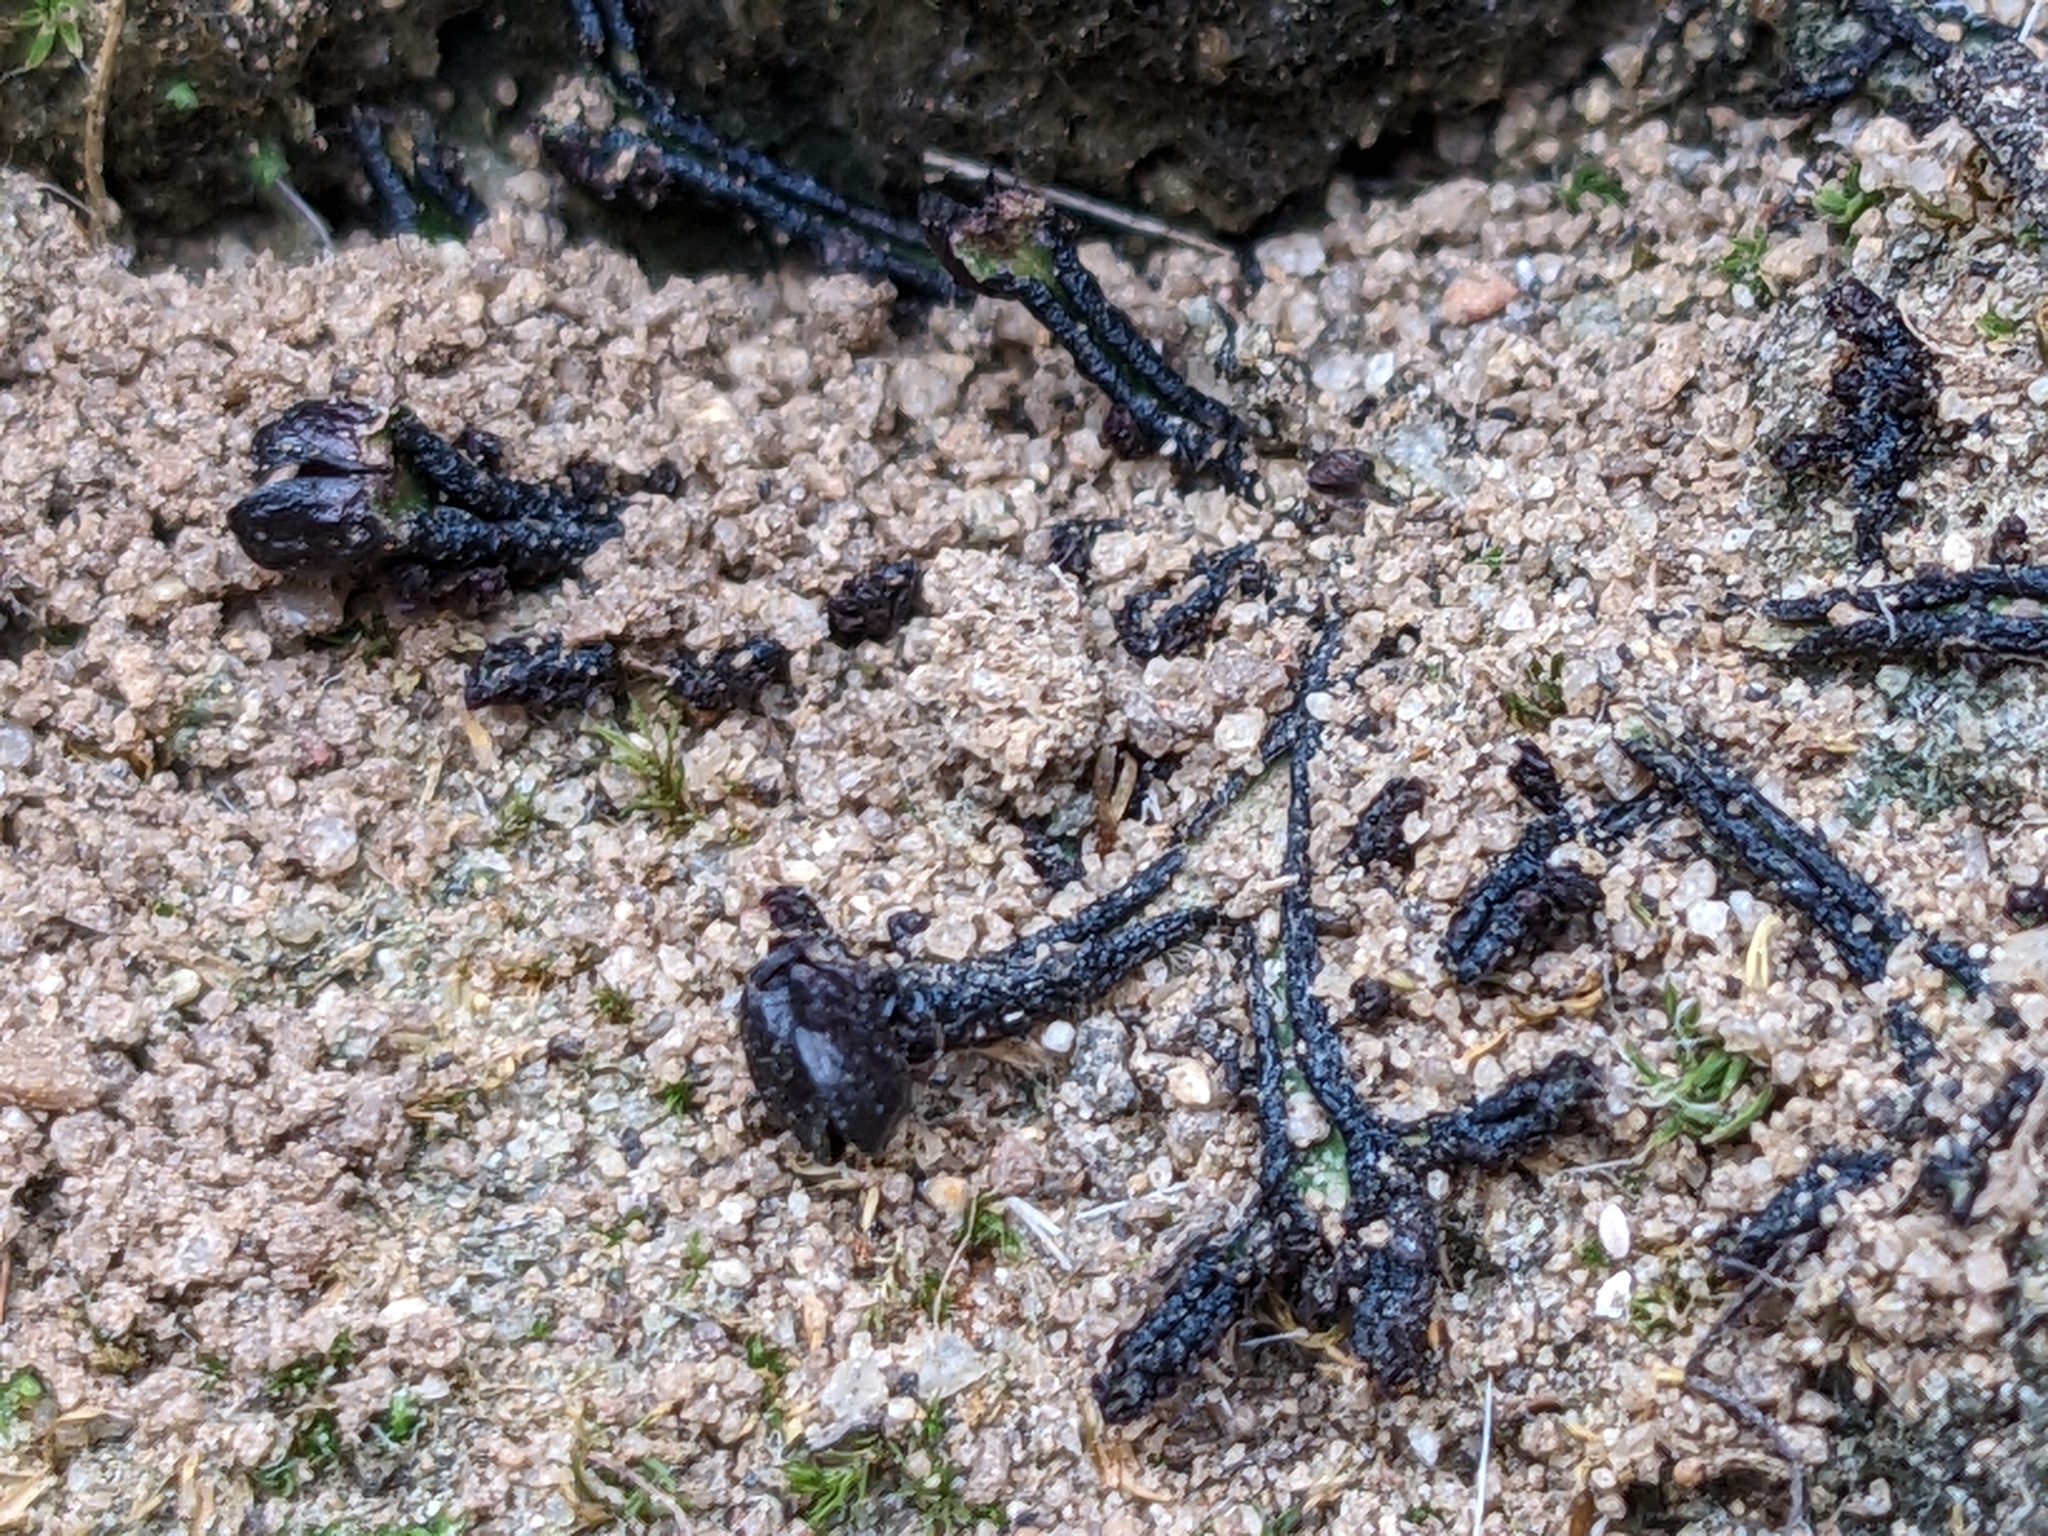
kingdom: Plantae
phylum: Marchantiophyta
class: Marchantiopsida
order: Marchantiales
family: Targioniaceae
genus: Targionia
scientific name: Targionia hypophylla
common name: Orobus-seed liverwort
